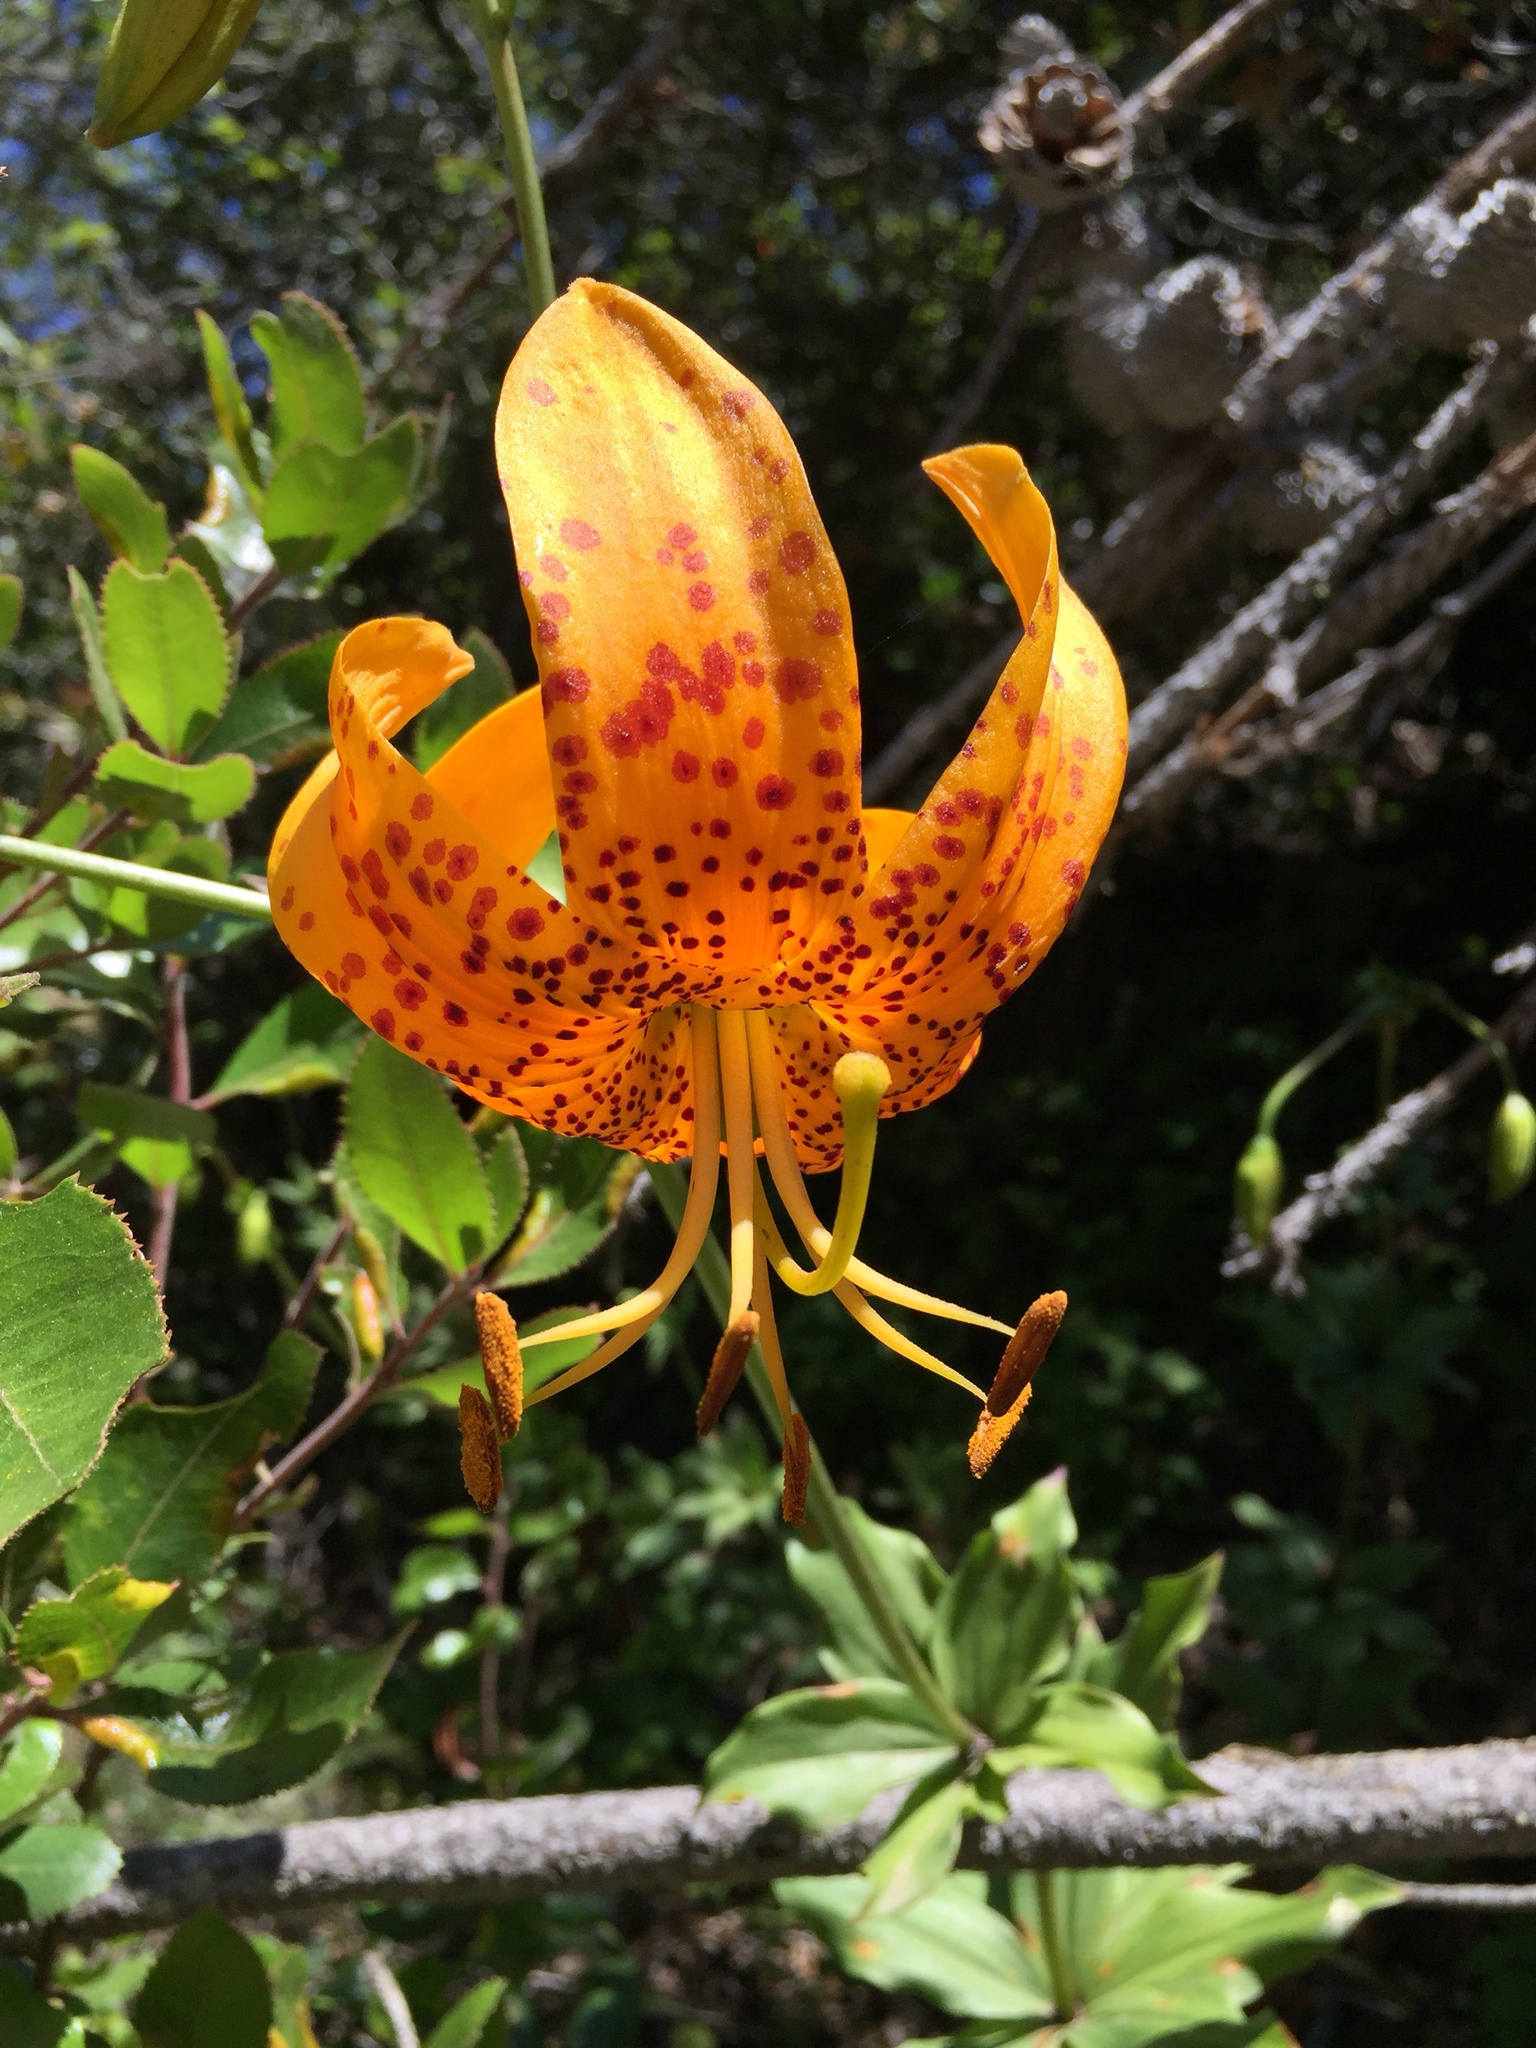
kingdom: Plantae
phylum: Tracheophyta
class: Liliopsida
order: Liliales
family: Liliaceae
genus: Lilium
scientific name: Lilium humboldtii
